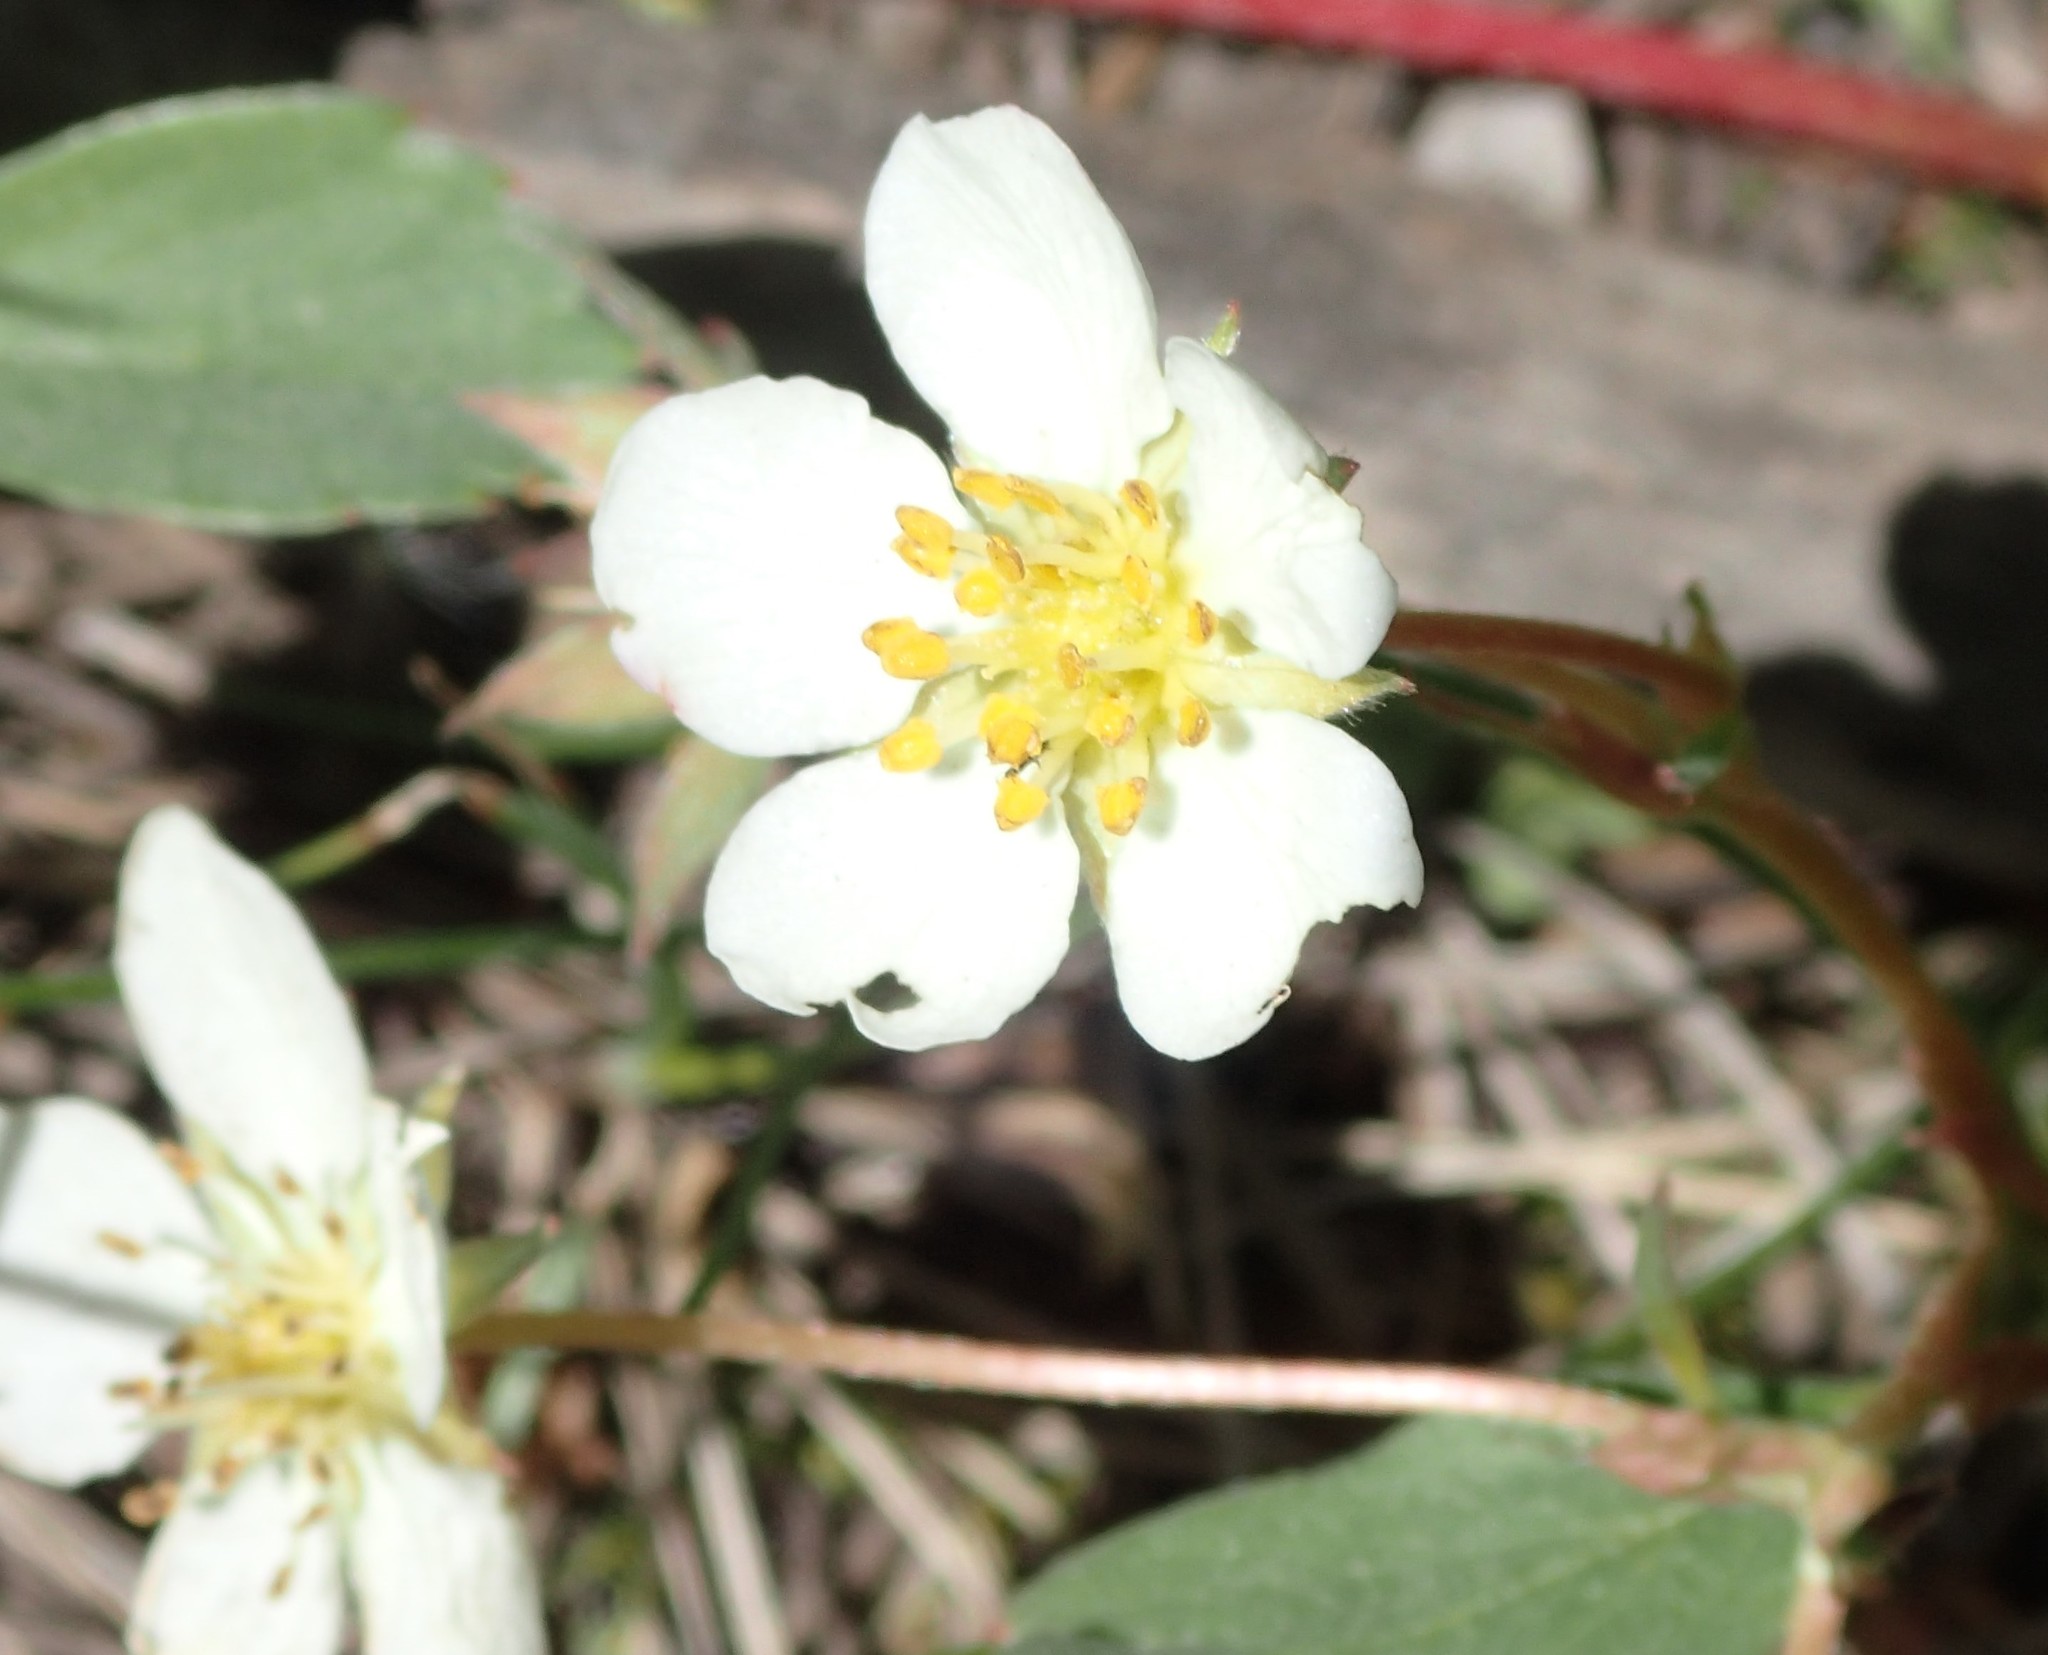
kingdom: Plantae
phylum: Tracheophyta
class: Magnoliopsida
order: Rosales
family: Rosaceae
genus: Fragaria
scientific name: Fragaria virginiana
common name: Thickleaved wild strawberry
